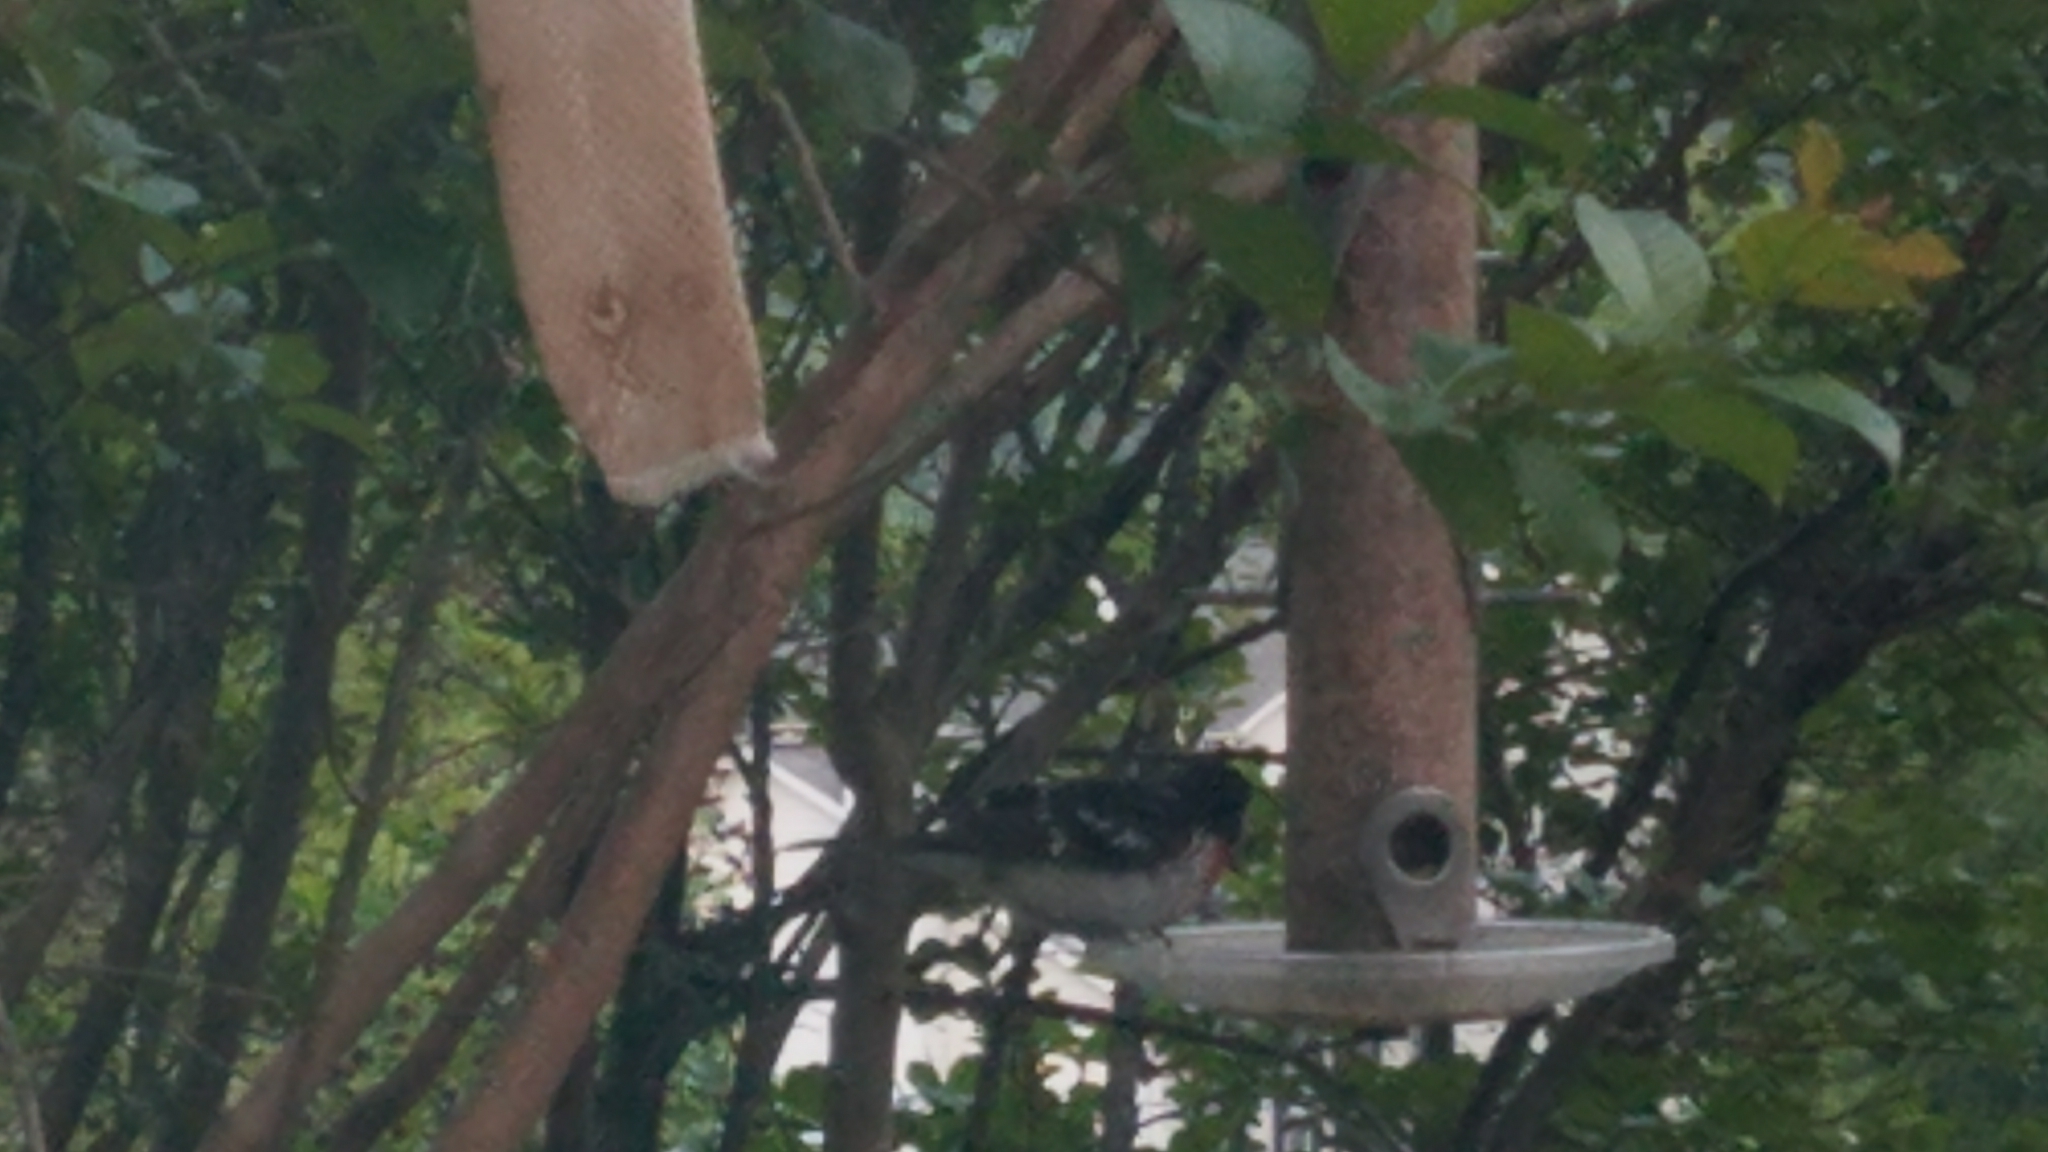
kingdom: Animalia
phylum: Chordata
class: Aves
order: Passeriformes
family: Cardinalidae
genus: Pheucticus
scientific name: Pheucticus ludovicianus
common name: Rose-breasted grosbeak
